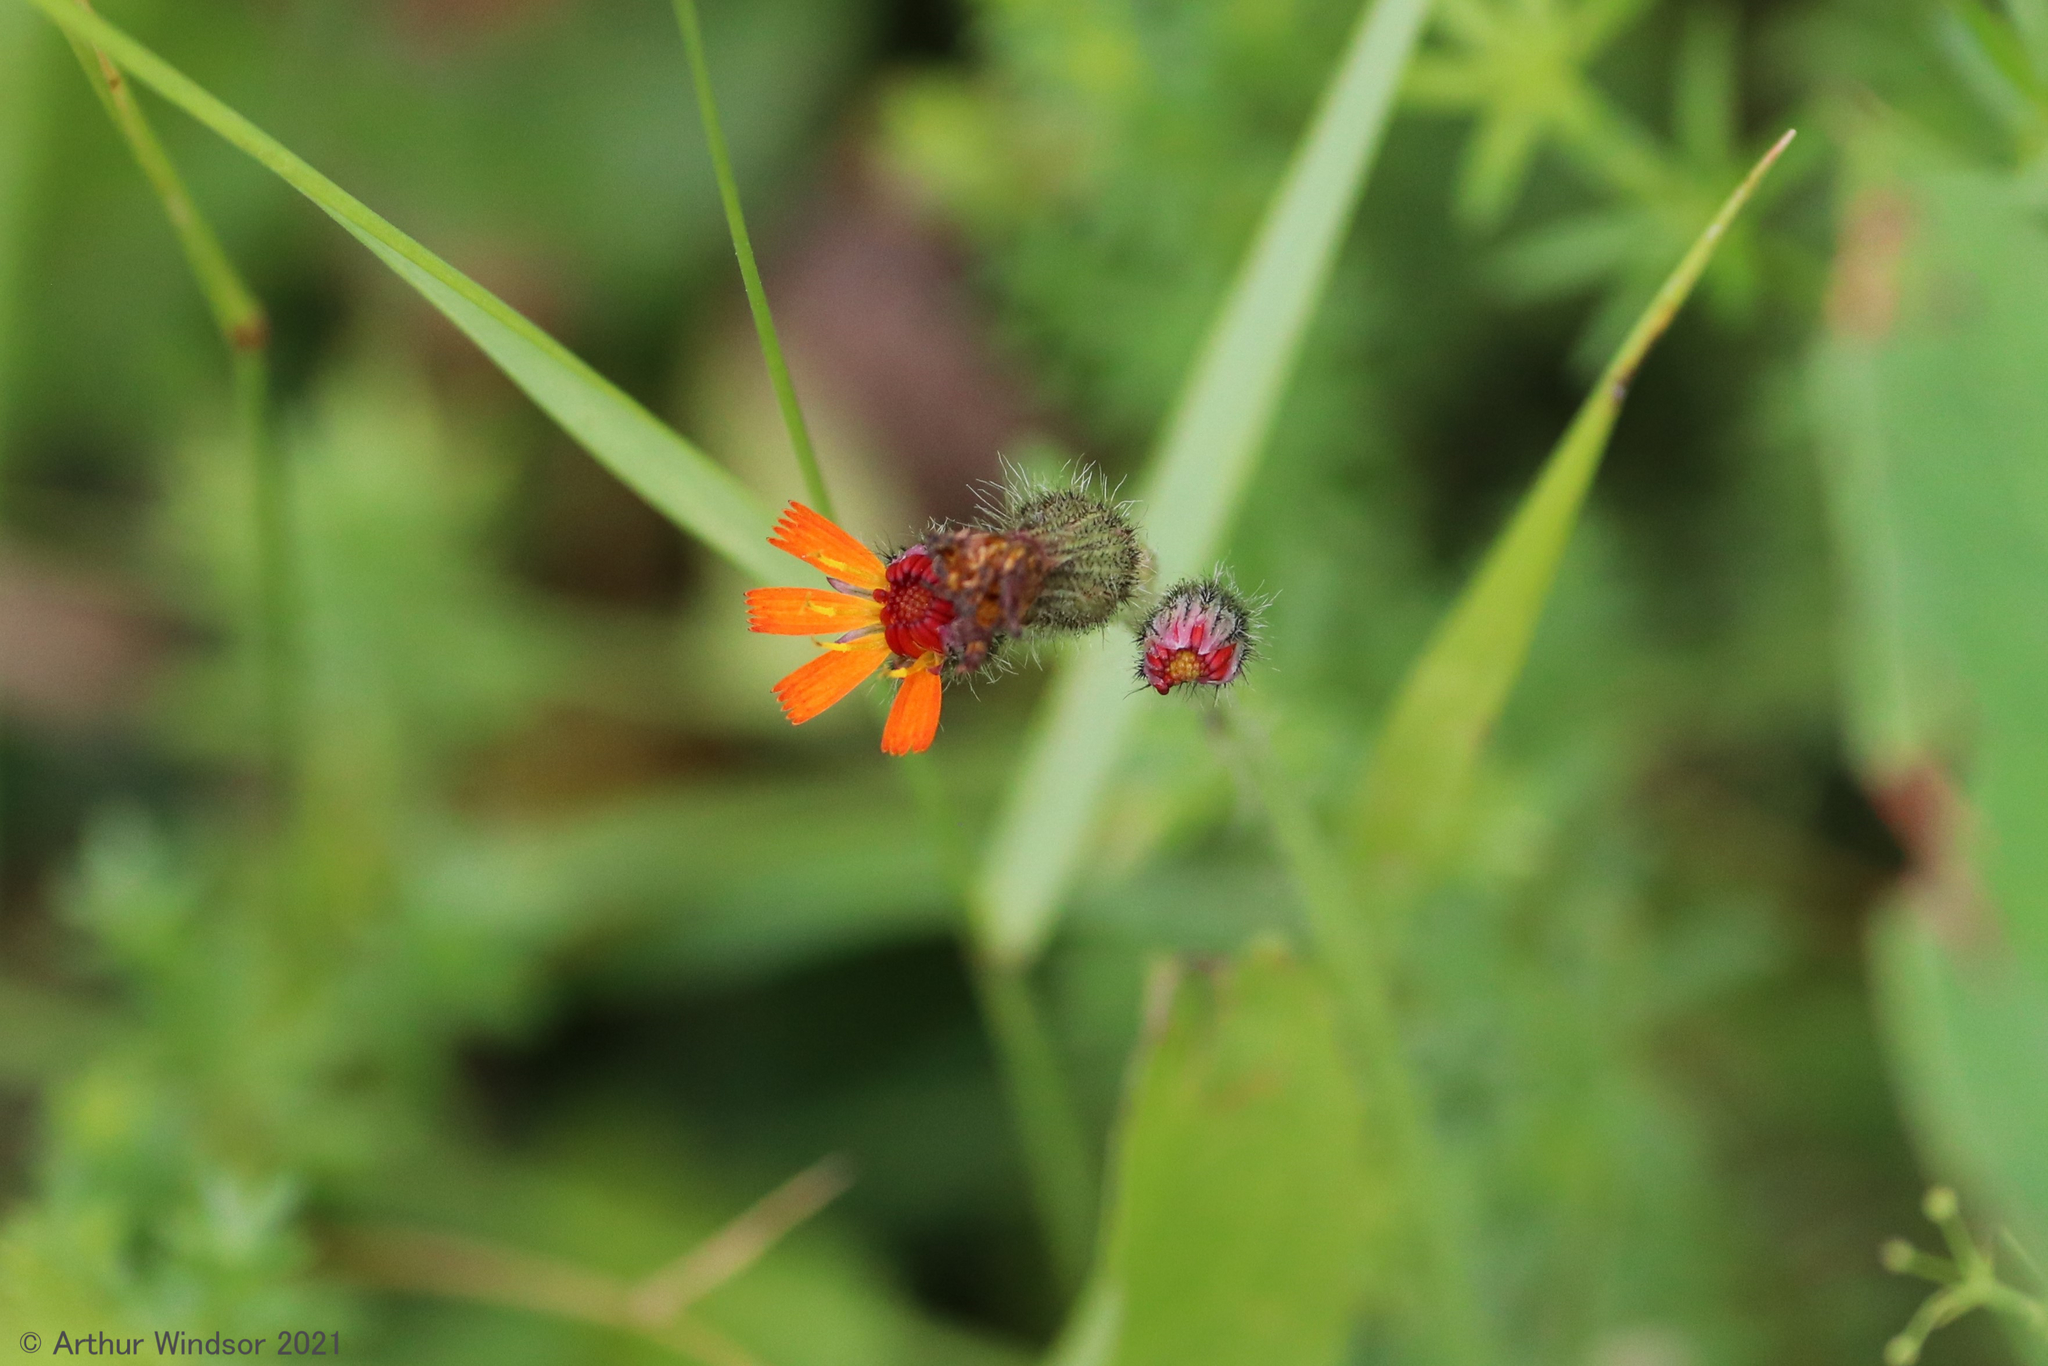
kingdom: Plantae
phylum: Tracheophyta
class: Magnoliopsida
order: Asterales
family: Asteraceae
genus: Pilosella
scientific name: Pilosella aurantiaca
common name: Fox-and-cubs
